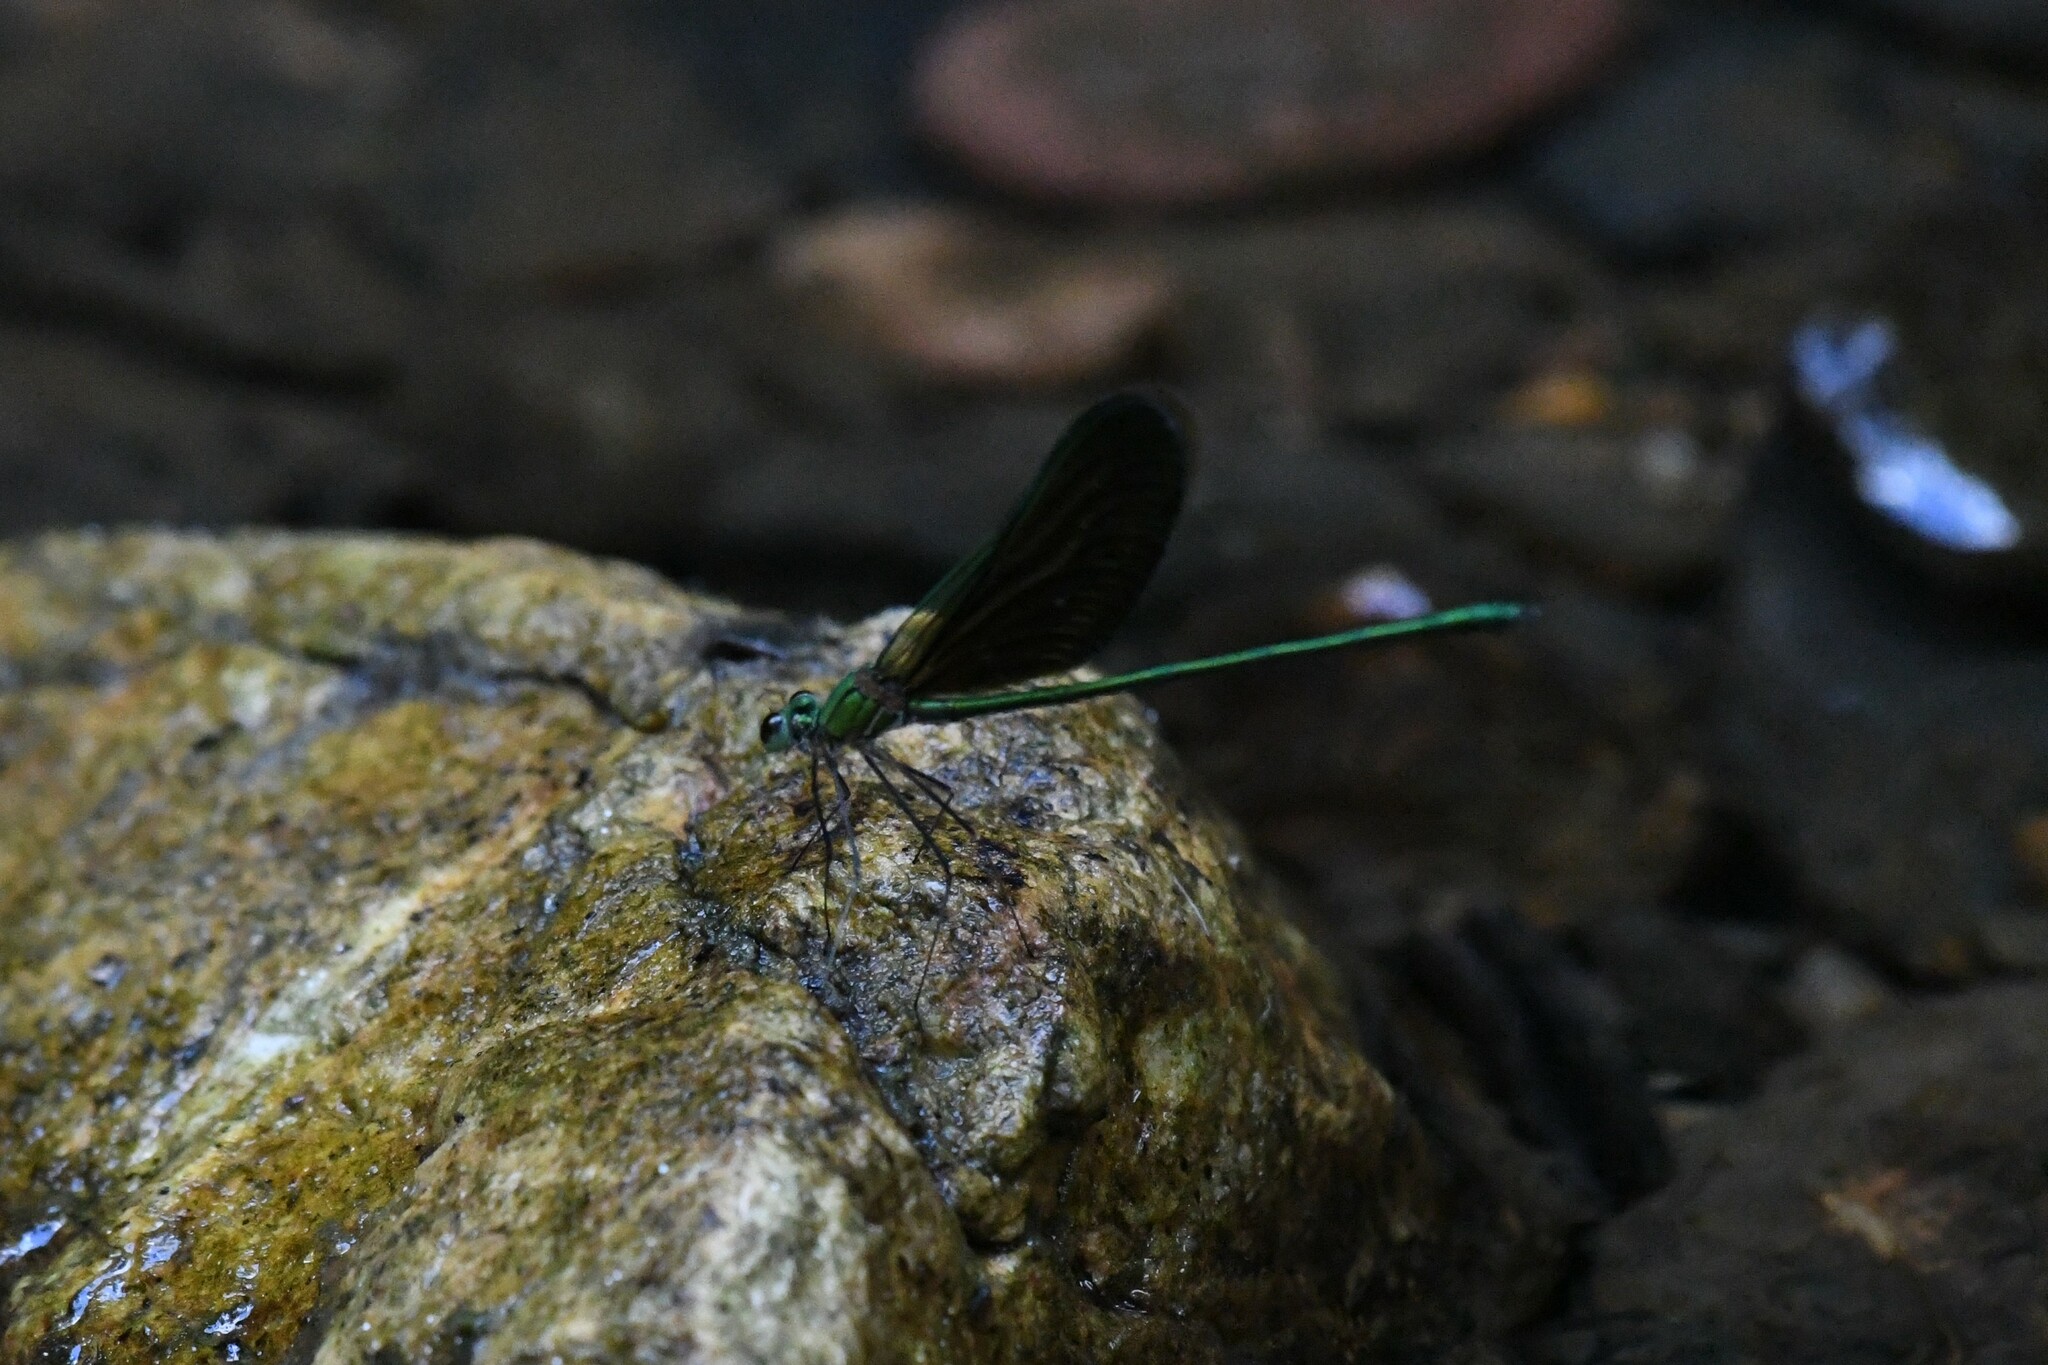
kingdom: Animalia
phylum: Arthropoda
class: Insecta
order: Odonata
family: Calopterygidae
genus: Neurobasis
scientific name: Neurobasis chinensis
